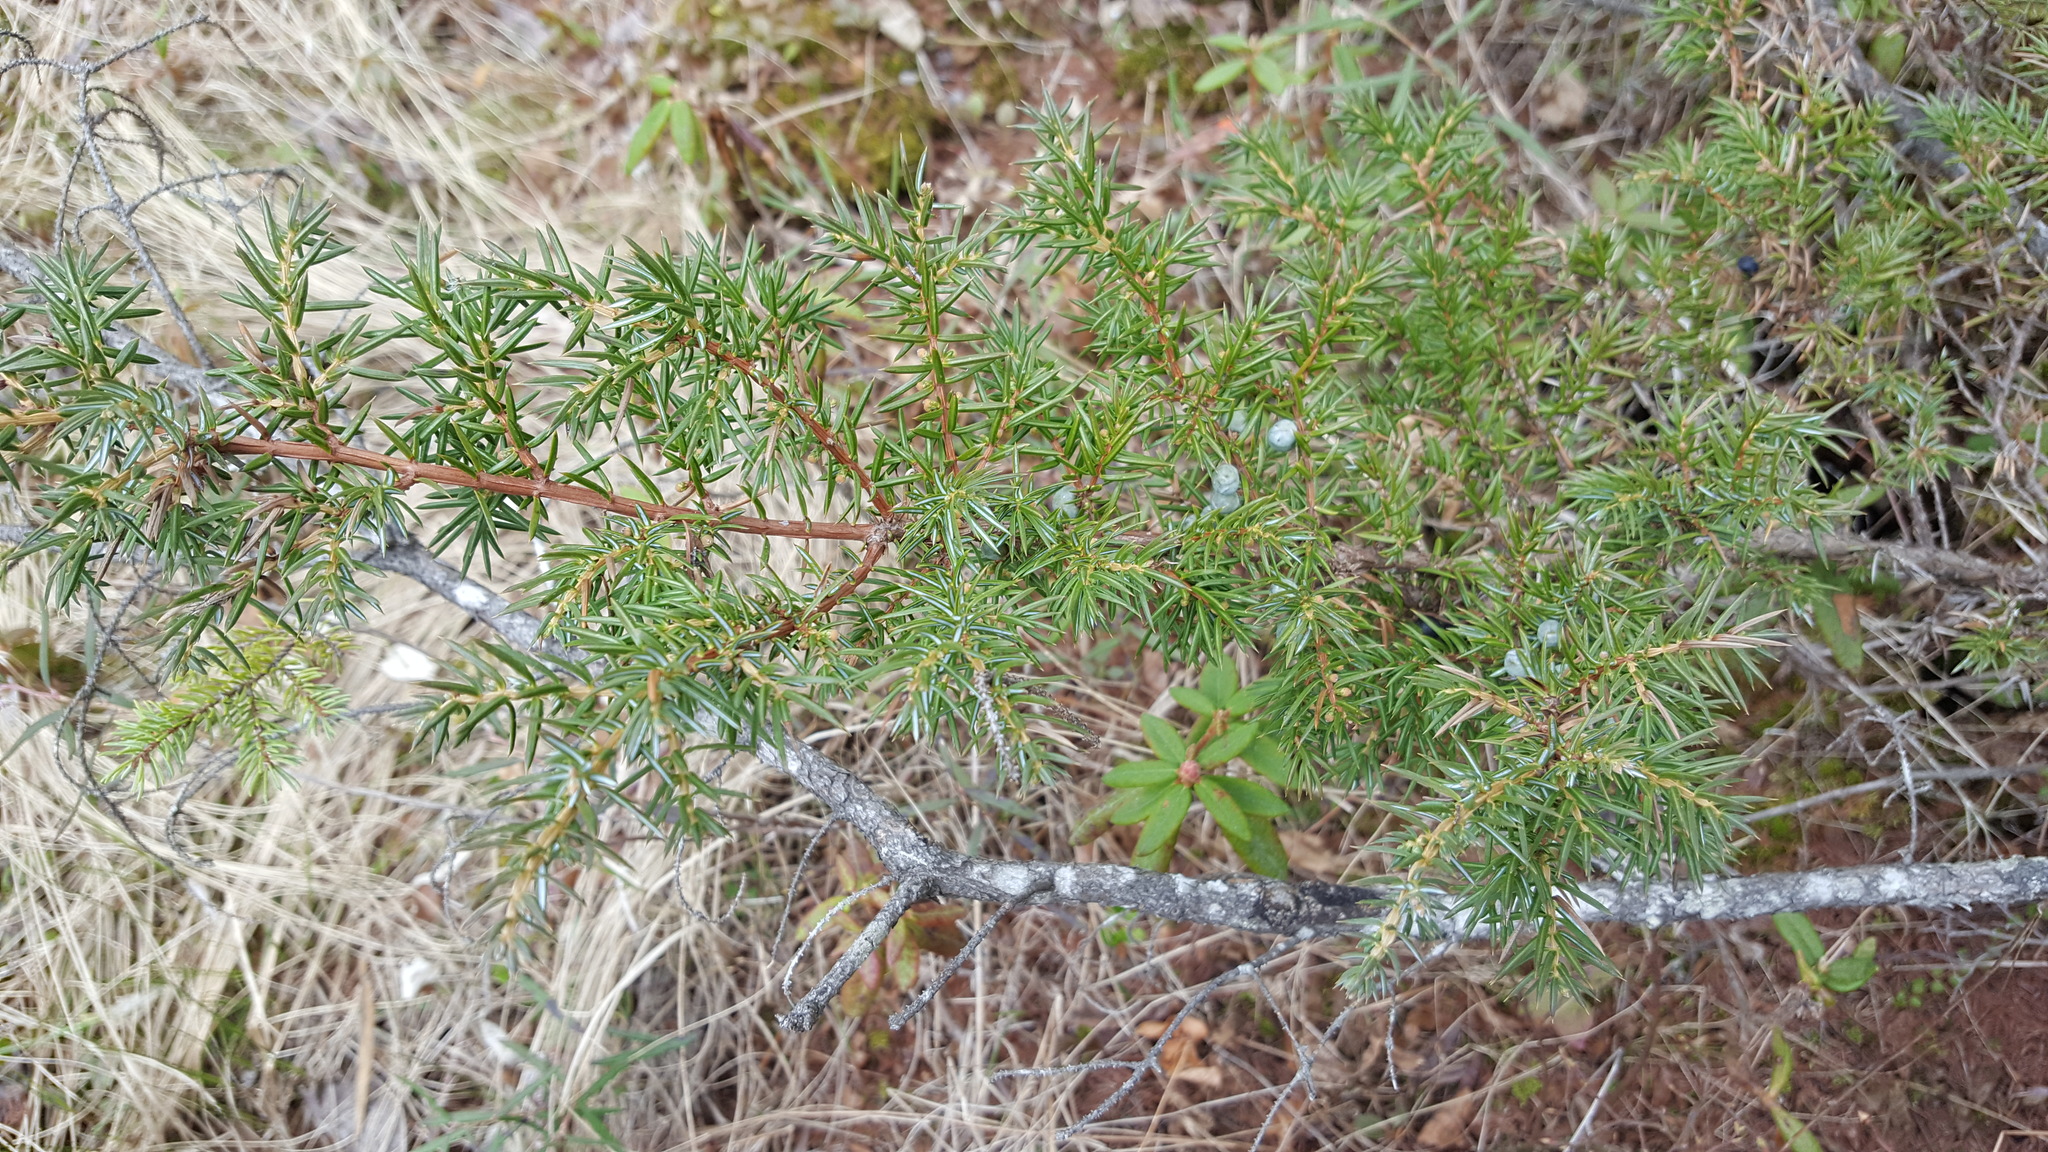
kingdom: Plantae
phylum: Tracheophyta
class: Pinopsida
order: Pinales
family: Cupressaceae
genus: Juniperus
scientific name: Juniperus communis
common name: Common juniper
